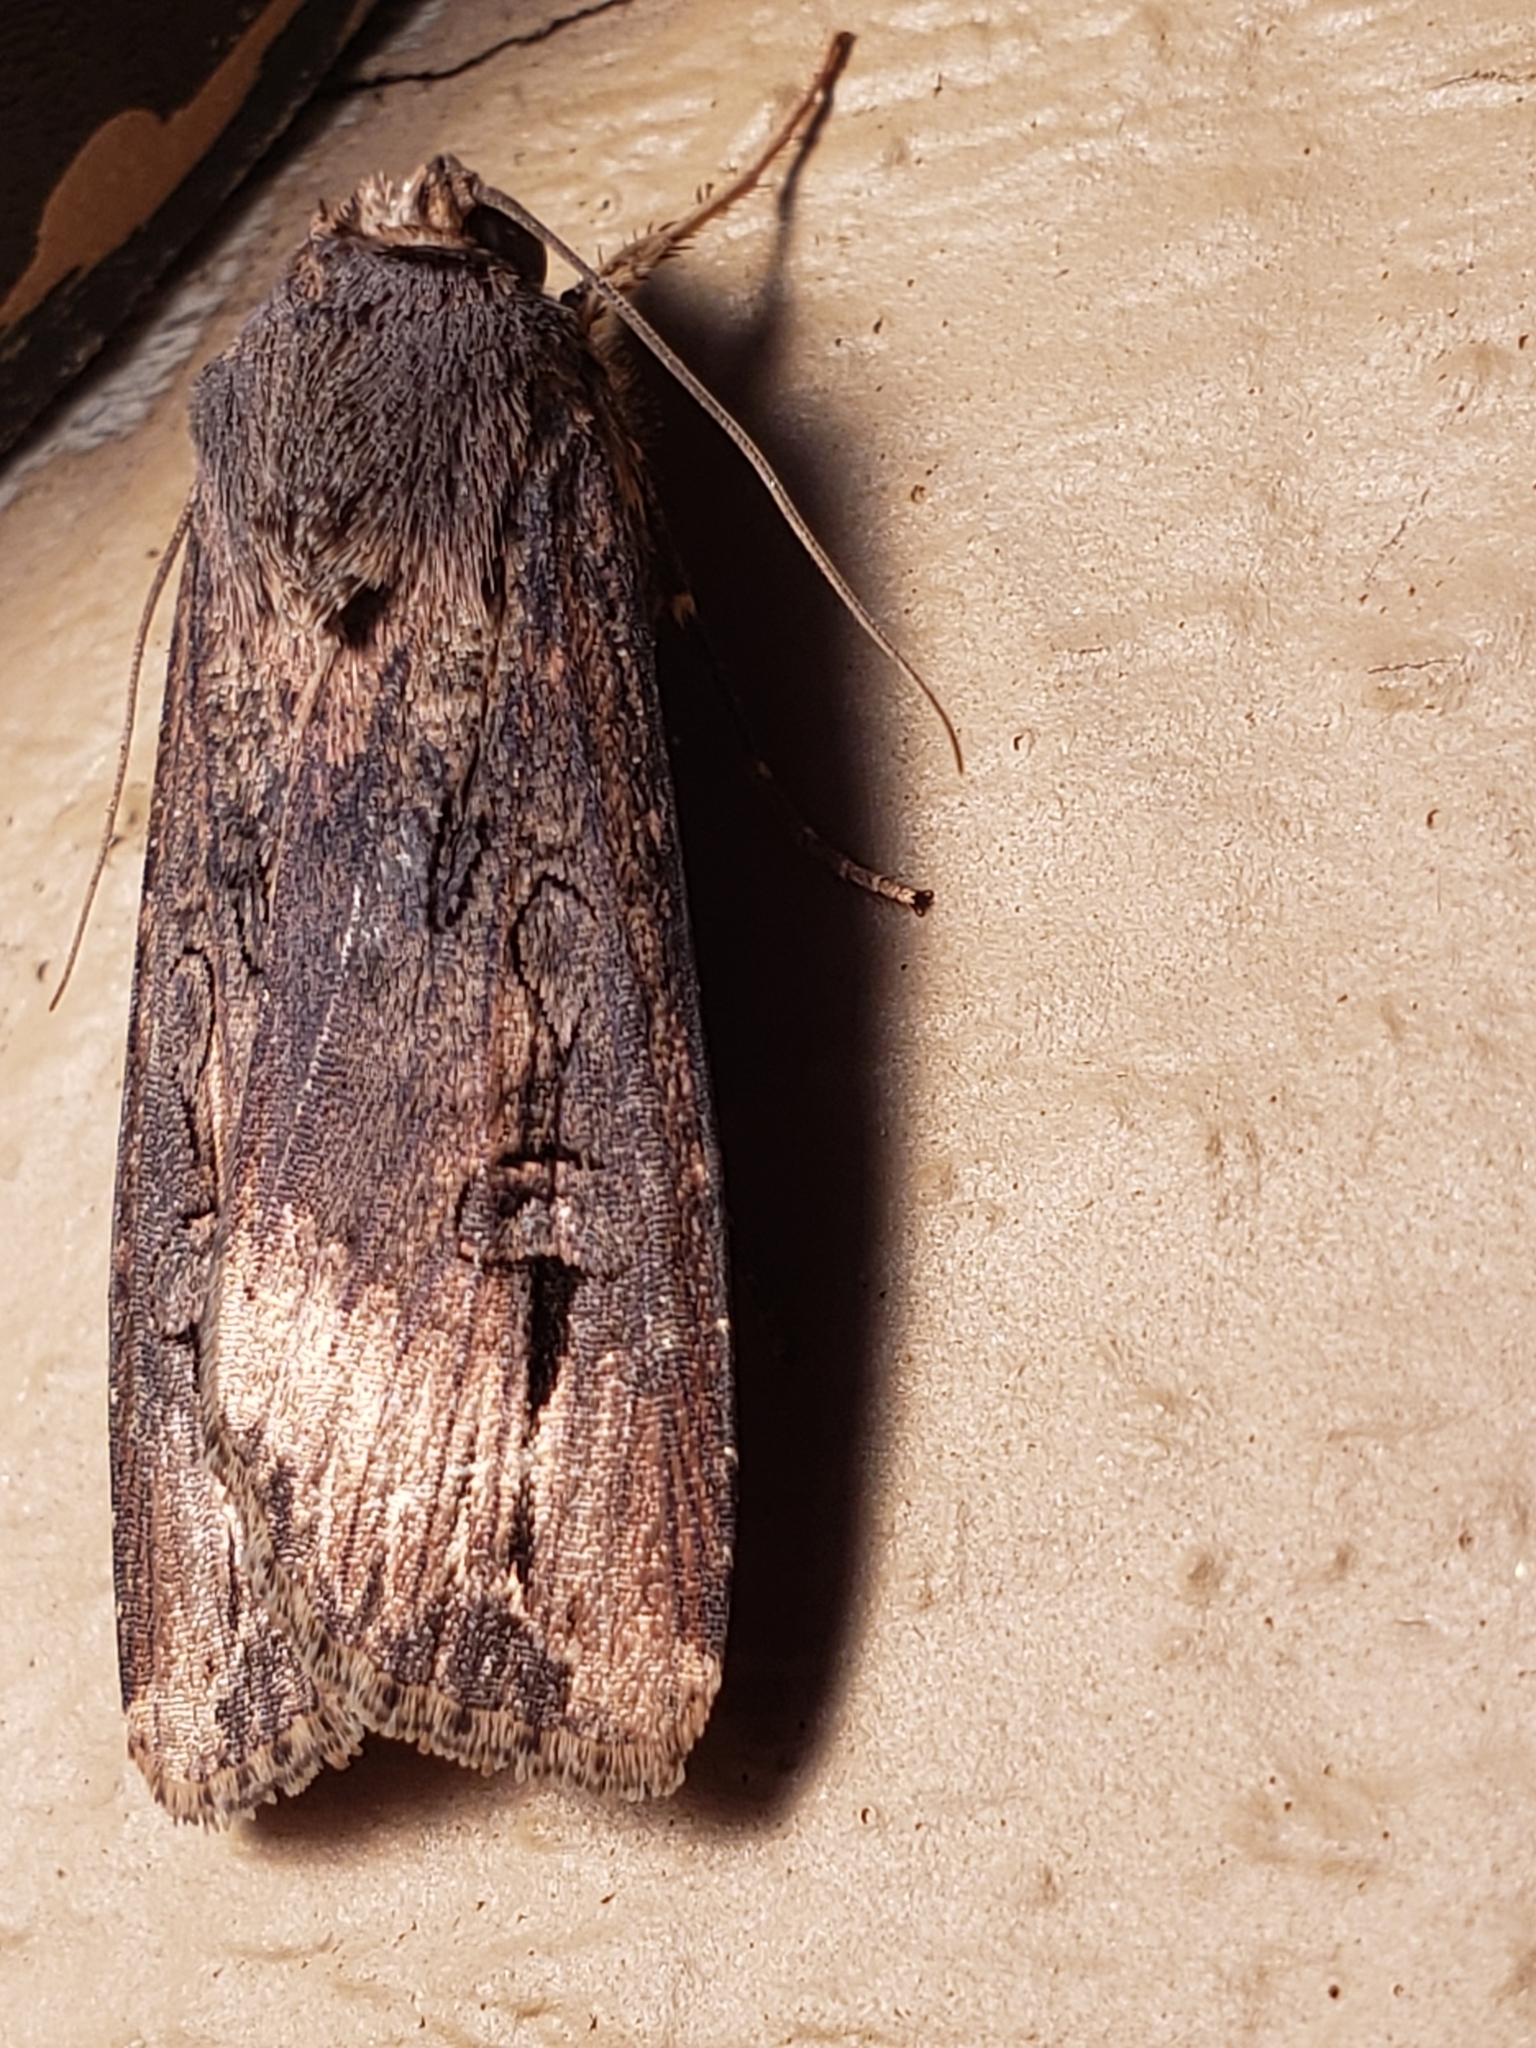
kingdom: Animalia
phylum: Arthropoda
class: Insecta
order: Lepidoptera
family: Noctuidae
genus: Agrotis
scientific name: Agrotis ipsilon
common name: Dark sword-grass
